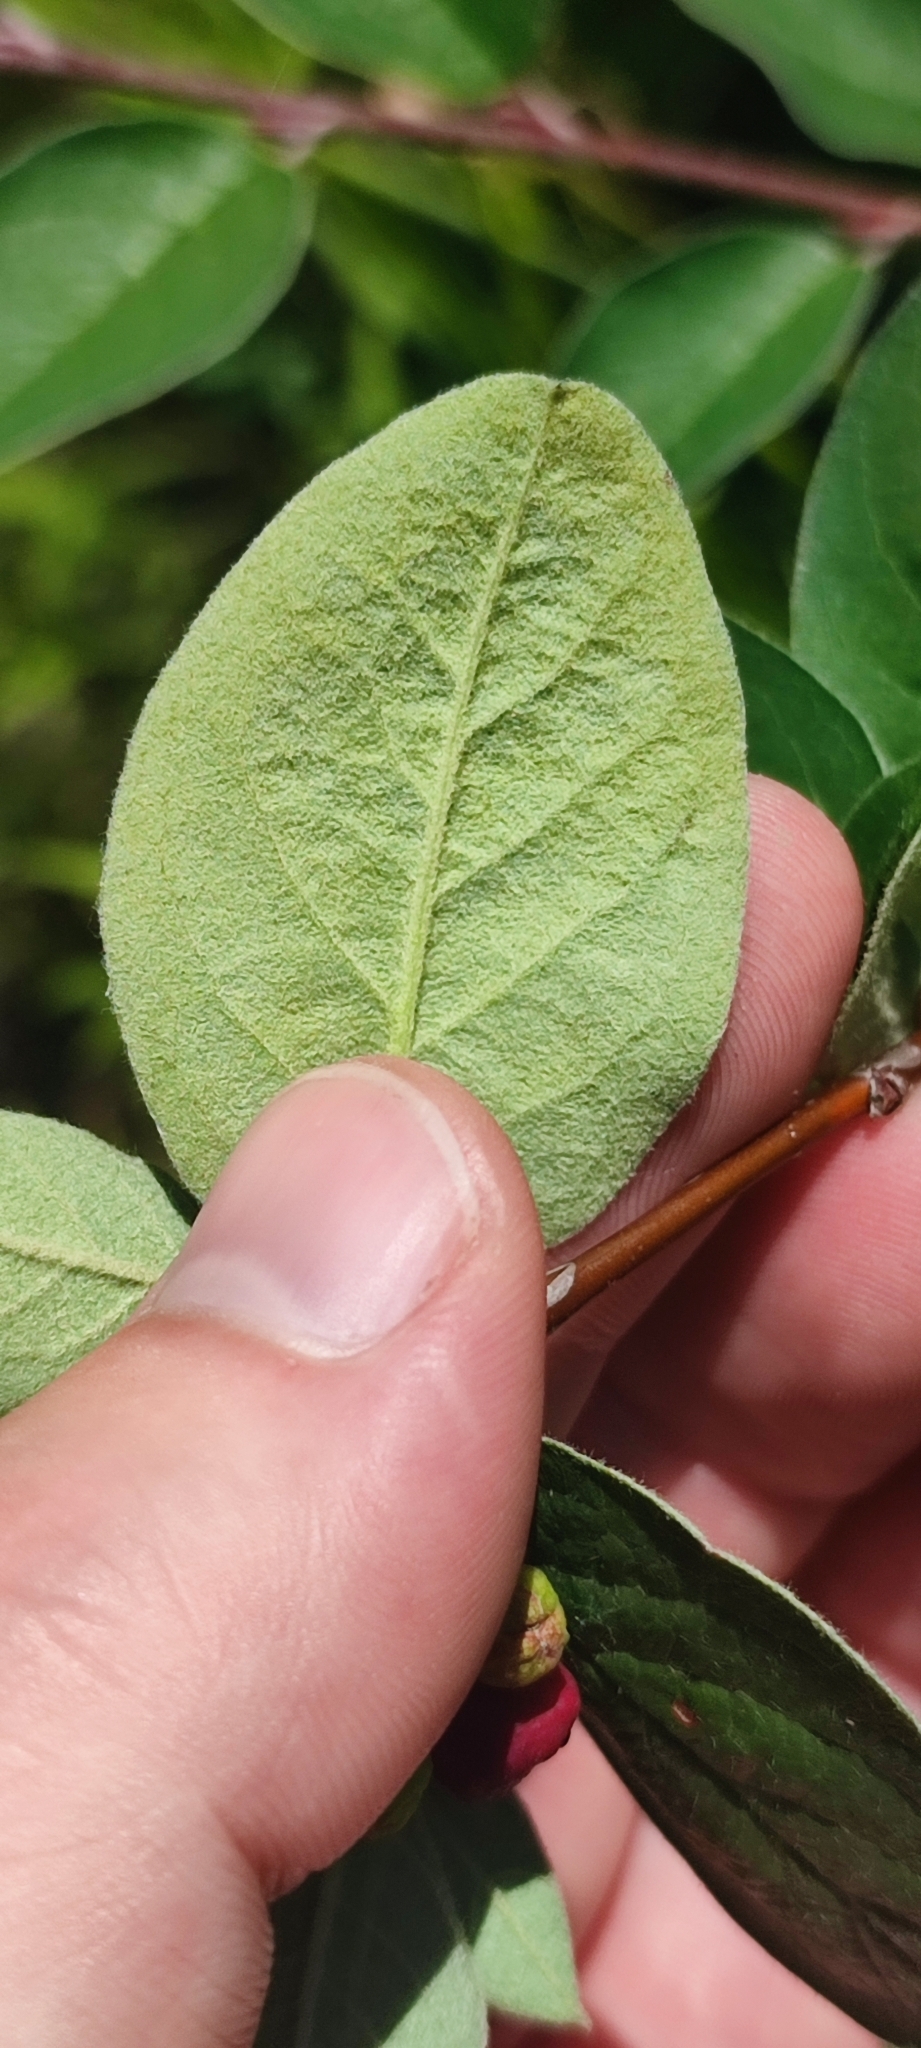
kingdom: Plantae
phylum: Tracheophyta
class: Magnoliopsida
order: Rosales
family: Rosaceae
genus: Cotoneaster
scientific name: Cotoneaster melanocarpus
